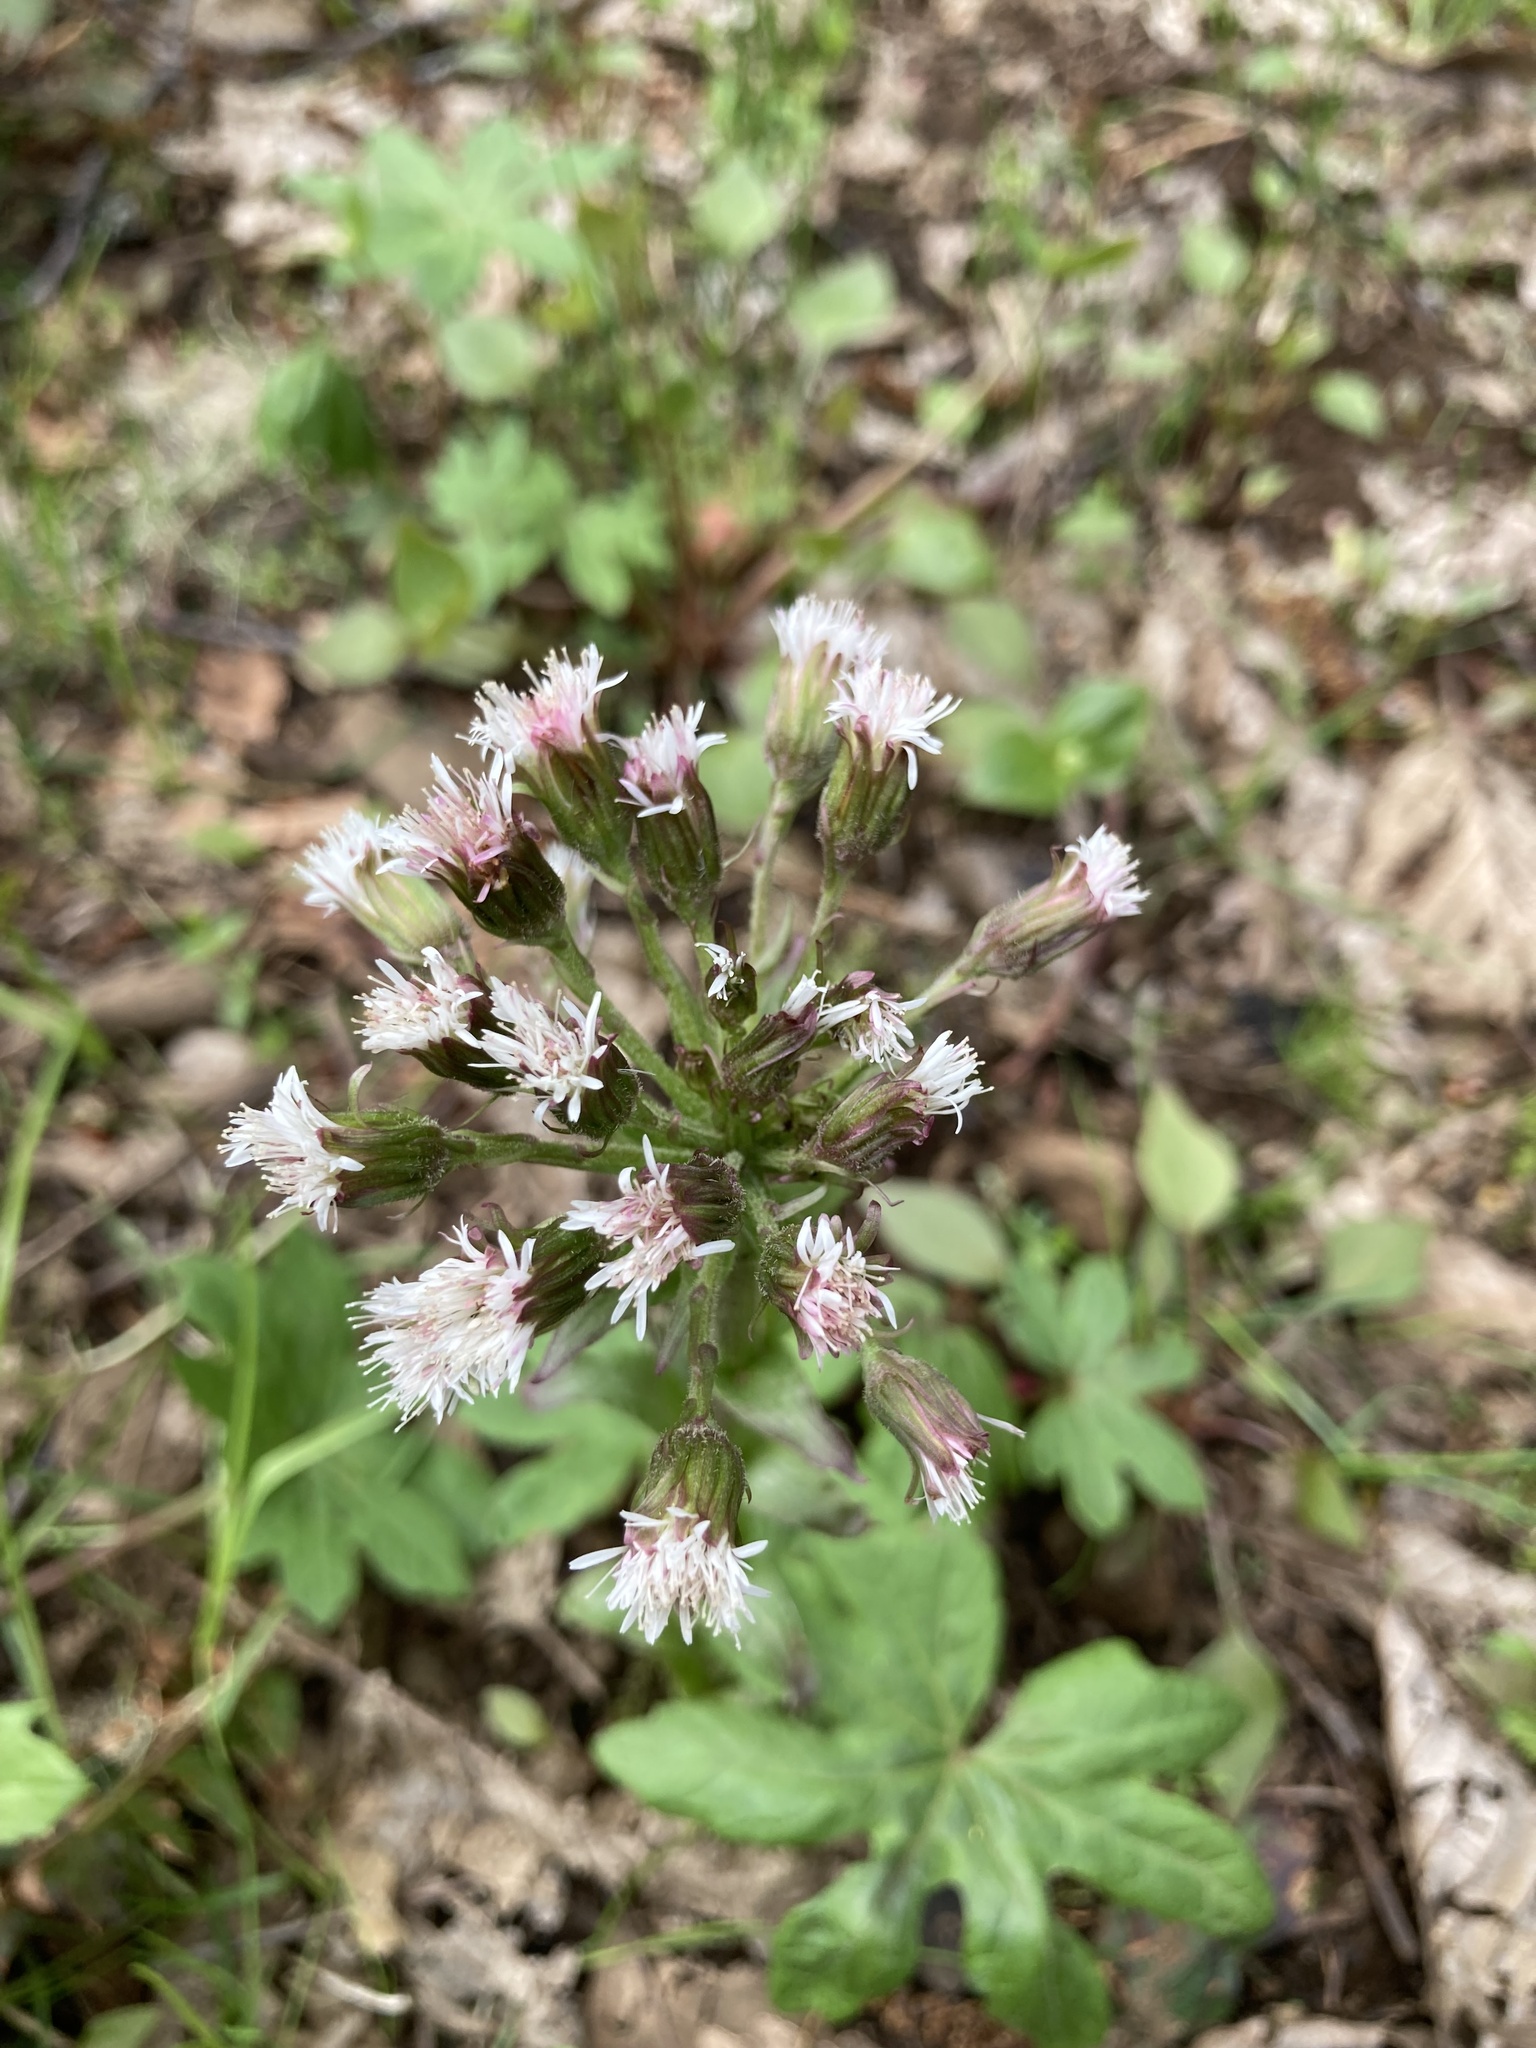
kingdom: Plantae
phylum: Tracheophyta
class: Magnoliopsida
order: Asterales
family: Asteraceae
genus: Petasites
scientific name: Petasites frigidus
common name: Arctic butterbur
